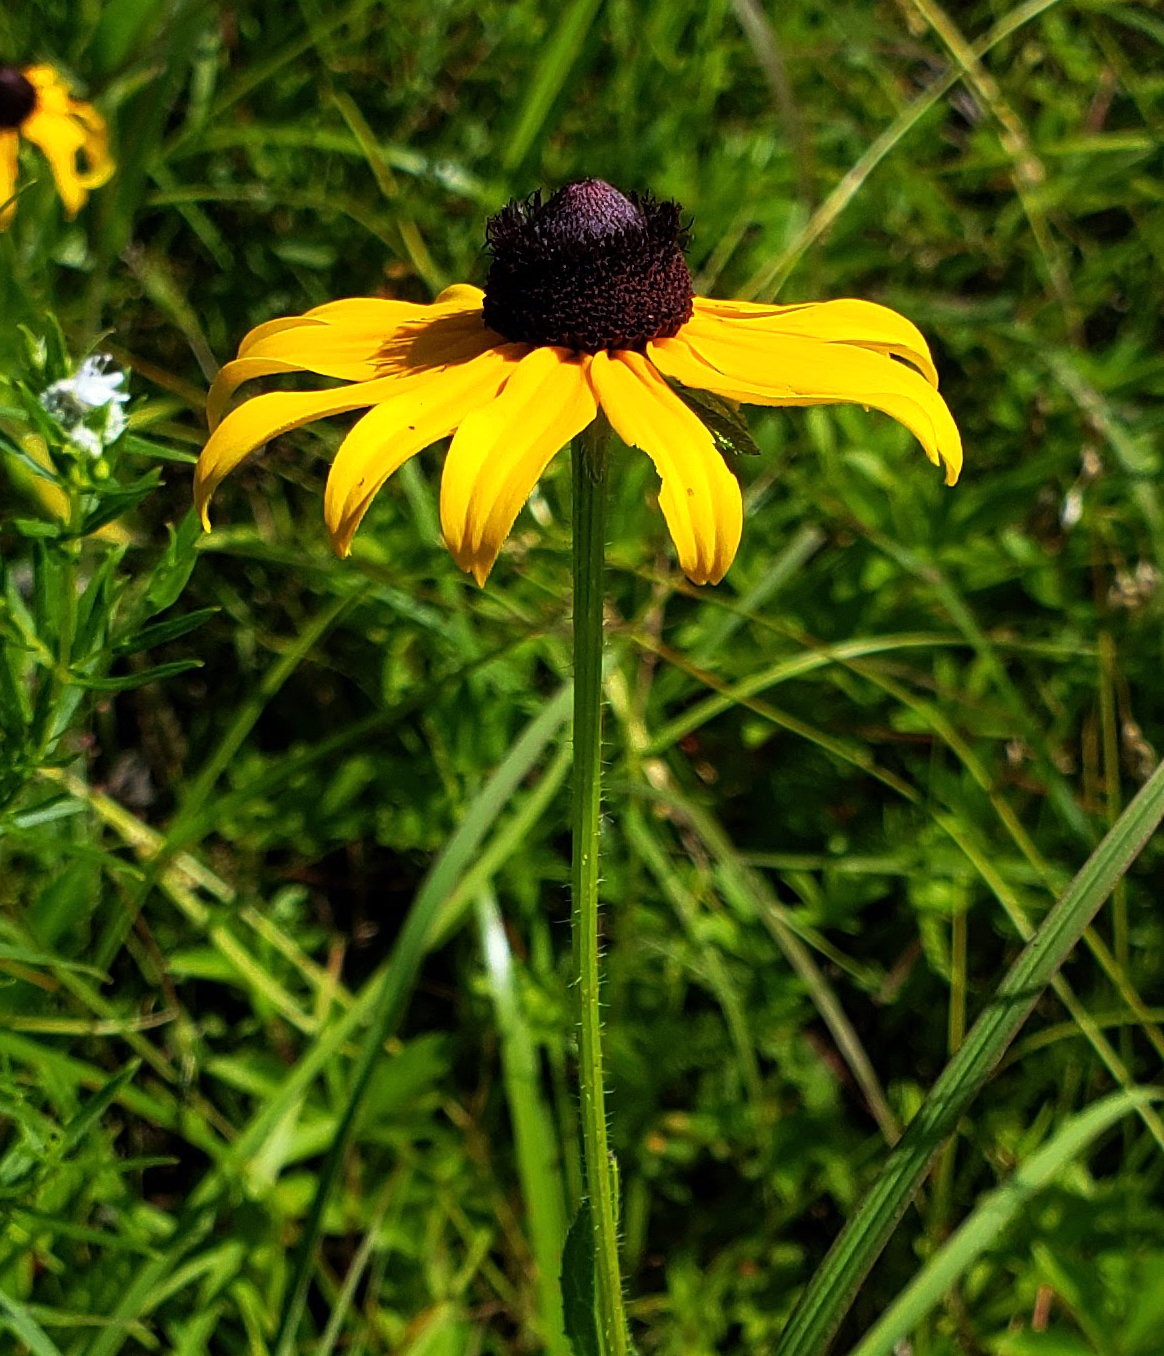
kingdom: Plantae
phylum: Tracheophyta
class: Magnoliopsida
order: Asterales
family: Asteraceae
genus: Rudbeckia
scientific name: Rudbeckia hirta
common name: Black-eyed-susan
